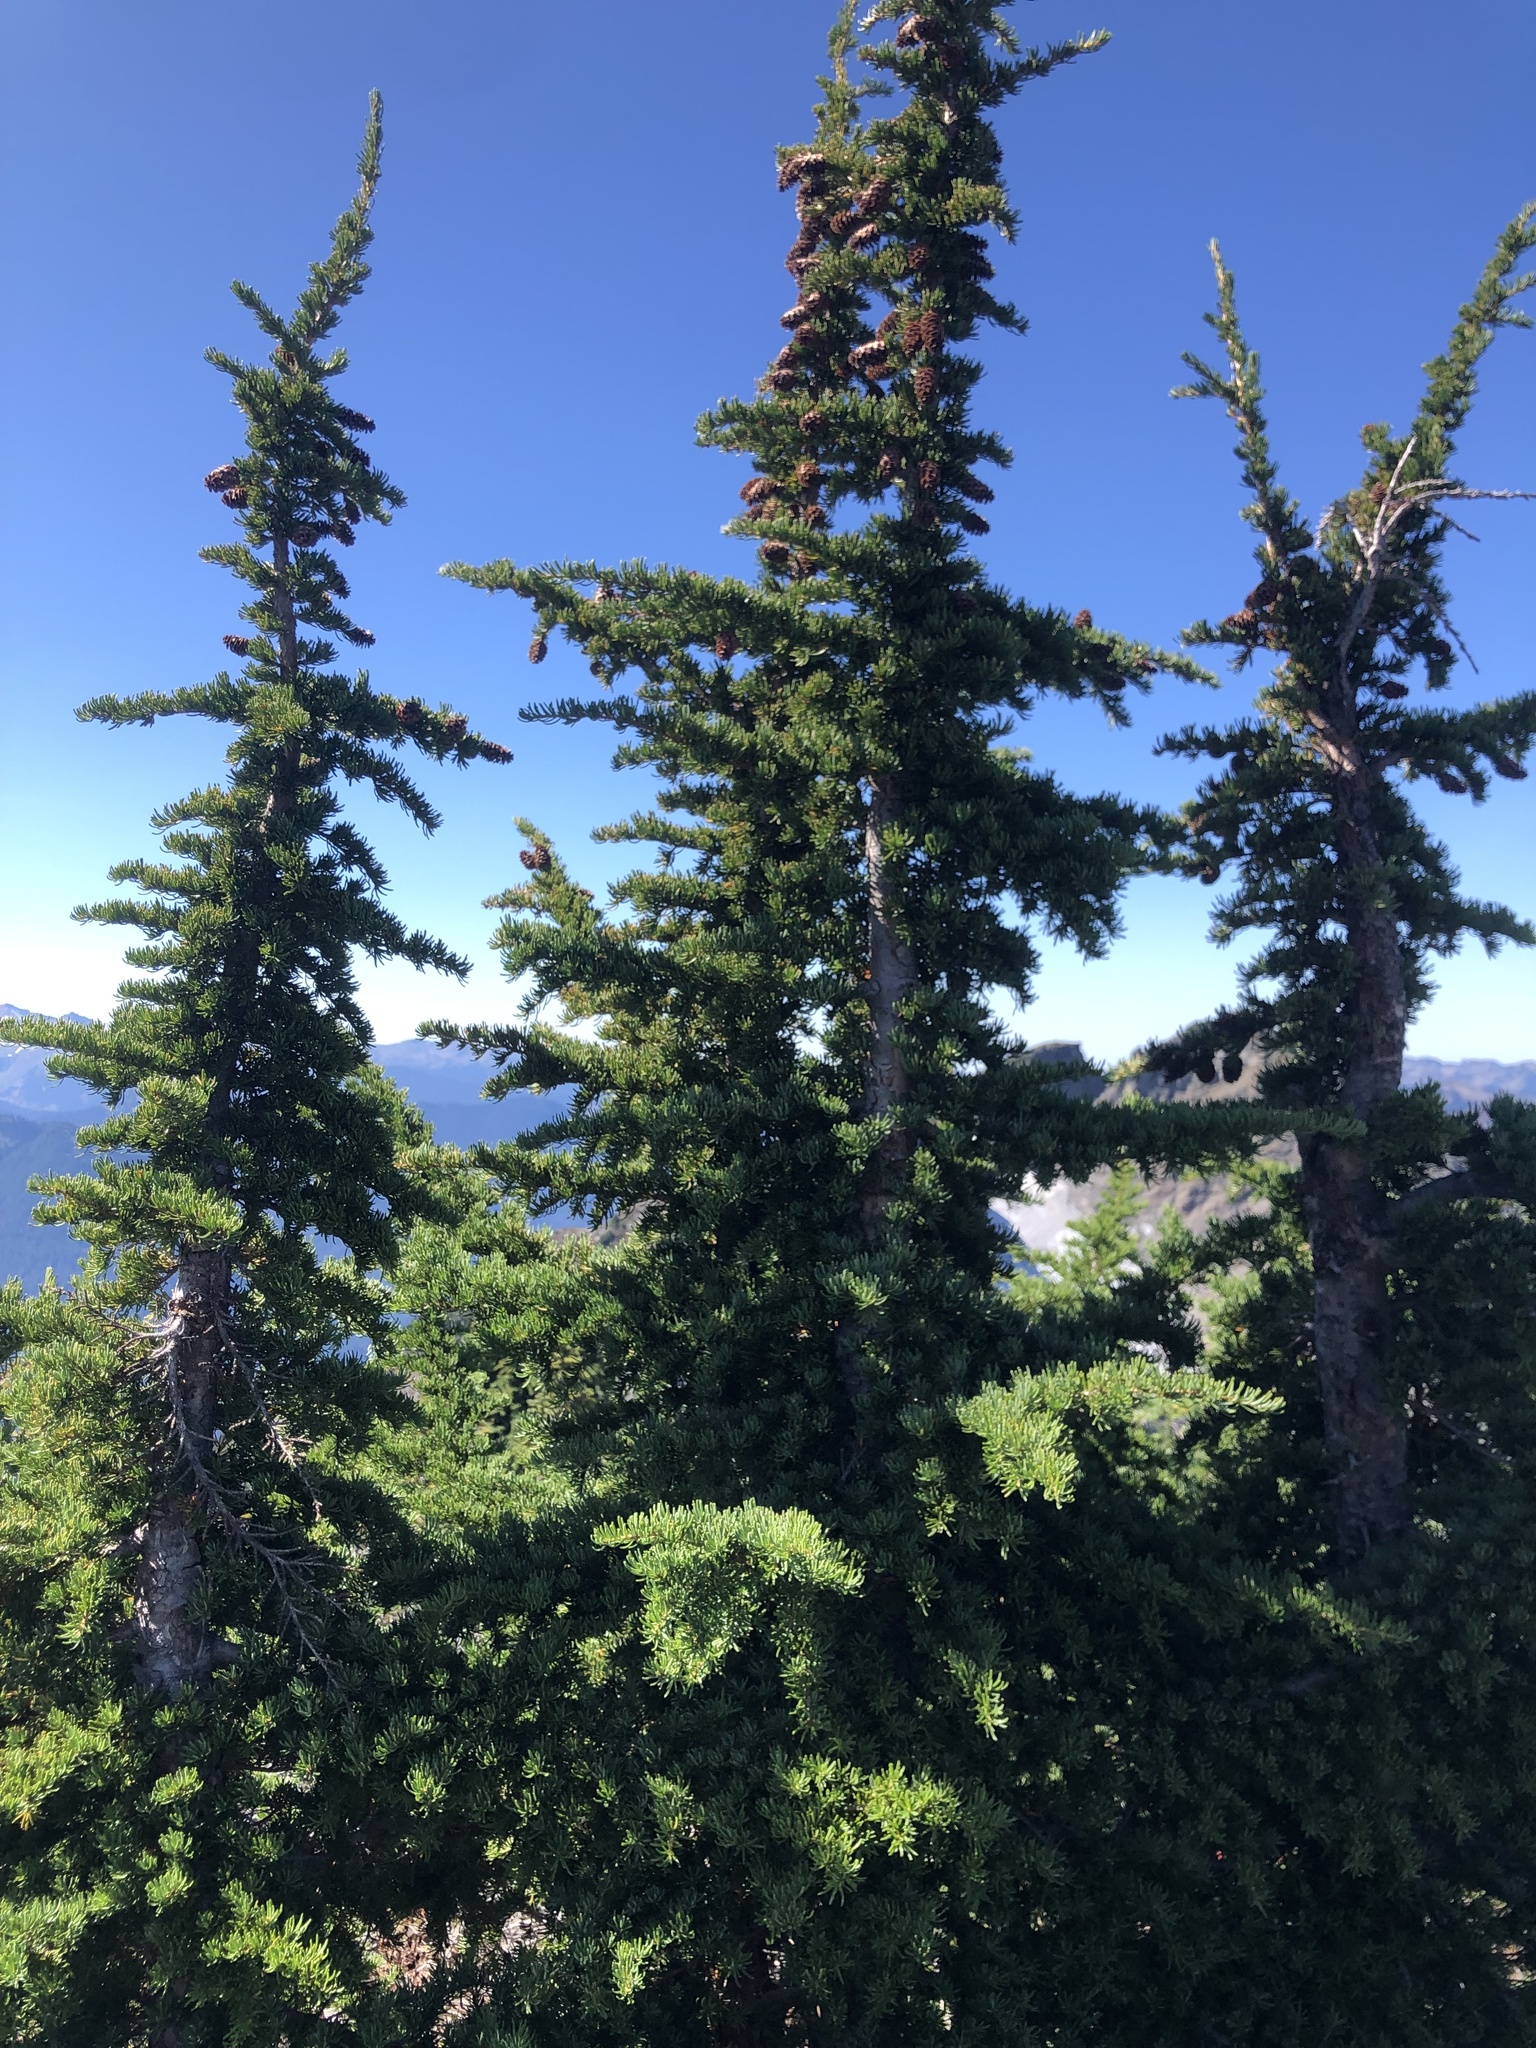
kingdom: Plantae
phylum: Tracheophyta
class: Pinopsida
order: Pinales
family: Pinaceae
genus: Tsuga
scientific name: Tsuga mertensiana
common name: Mountain hemlock
